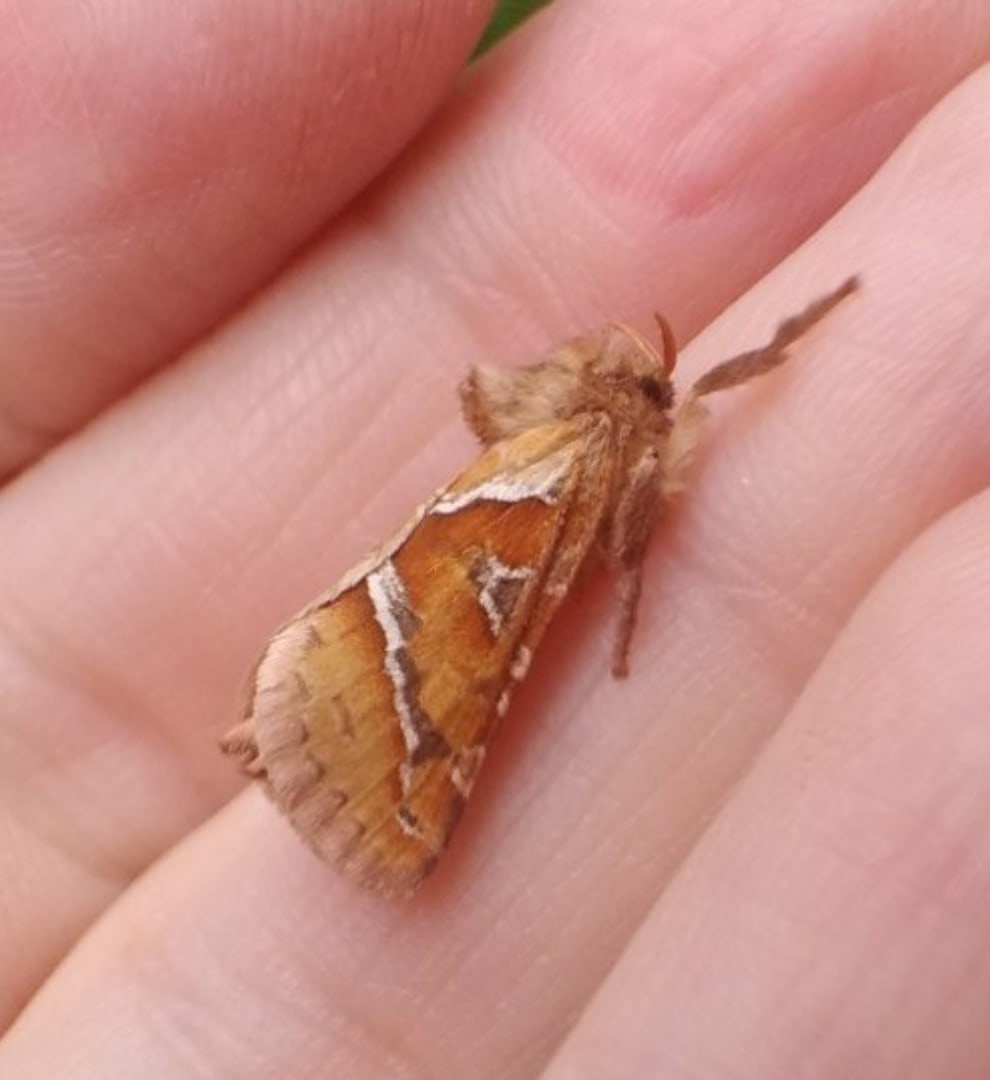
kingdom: Animalia
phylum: Arthropoda
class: Insecta
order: Lepidoptera
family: Hepialidae
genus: Triodia
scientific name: Triodia sylvina
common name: Orange swift
